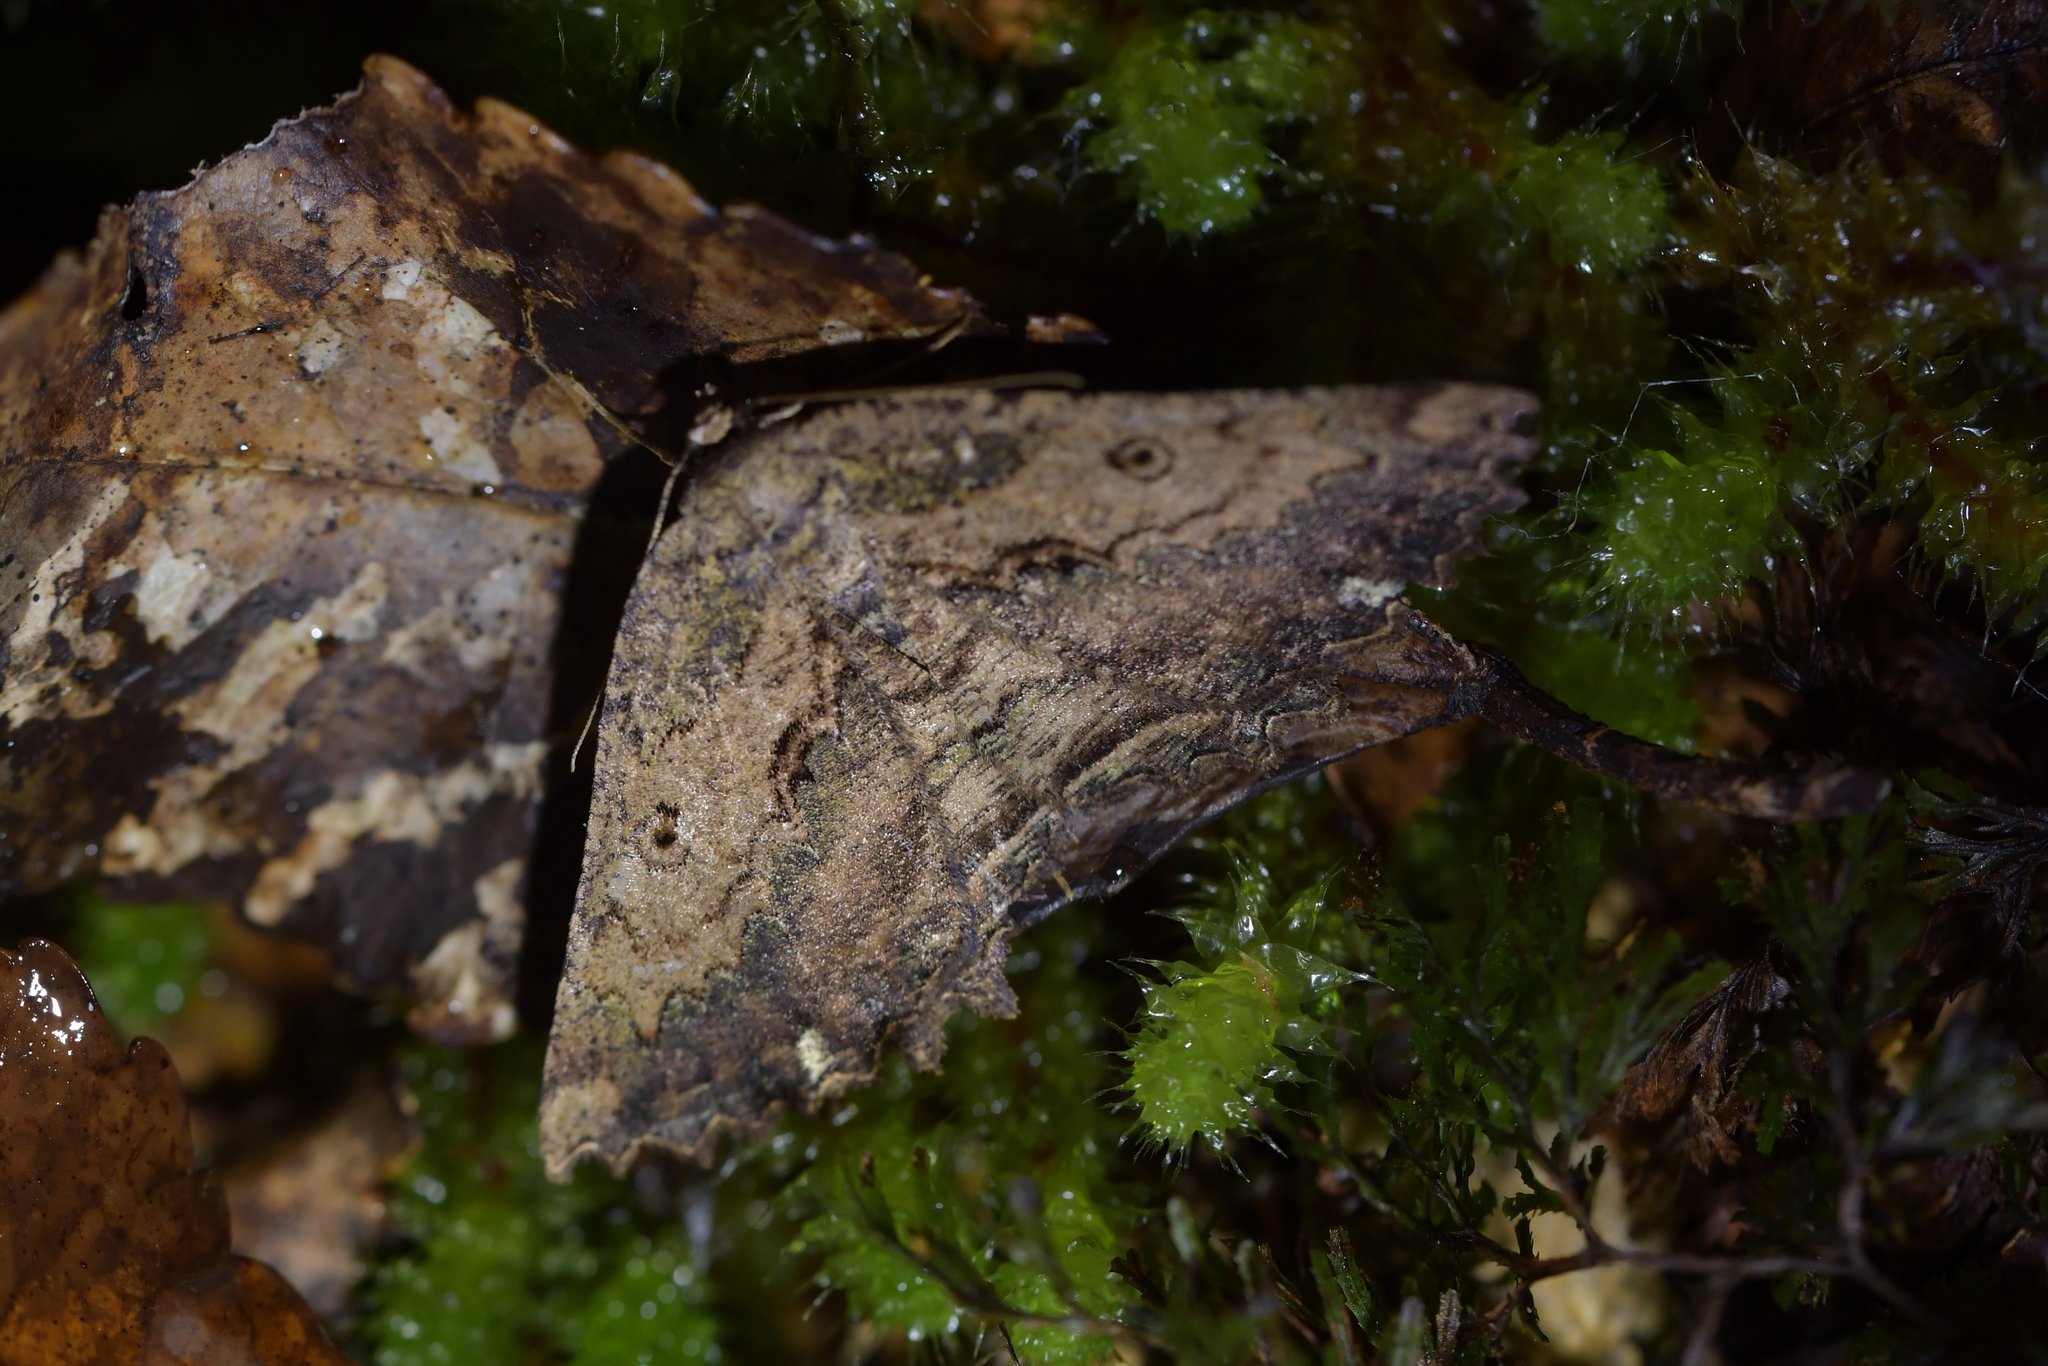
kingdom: Animalia
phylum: Arthropoda
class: Insecta
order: Lepidoptera
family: Geometridae
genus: Gellonia
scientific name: Gellonia pannularia
